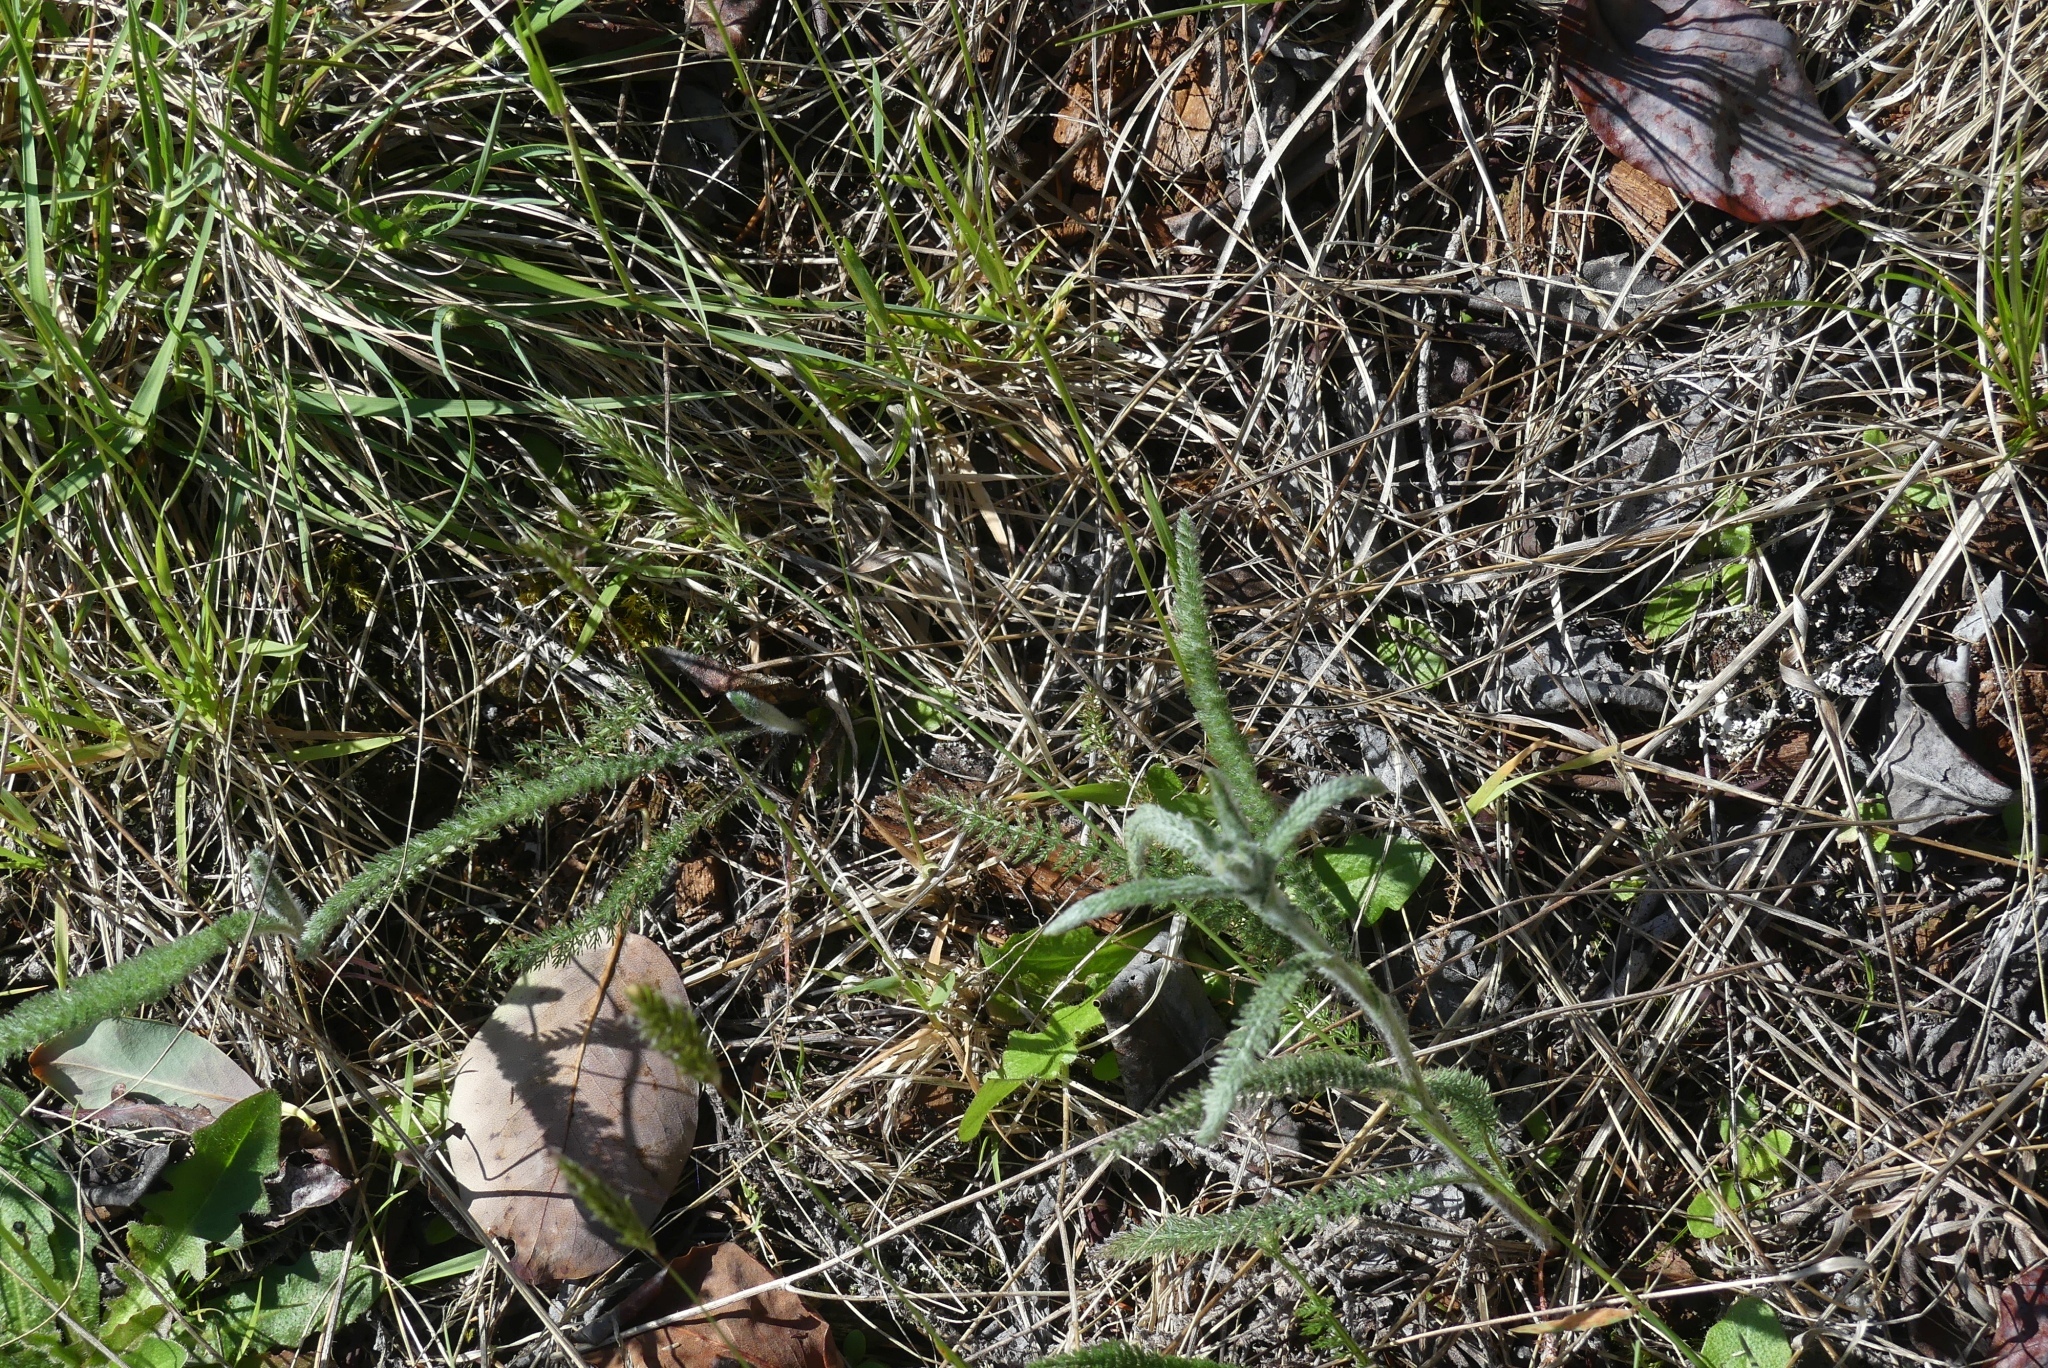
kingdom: Plantae
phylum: Tracheophyta
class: Magnoliopsida
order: Asterales
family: Asteraceae
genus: Achillea
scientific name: Achillea millefolium
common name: Yarrow
